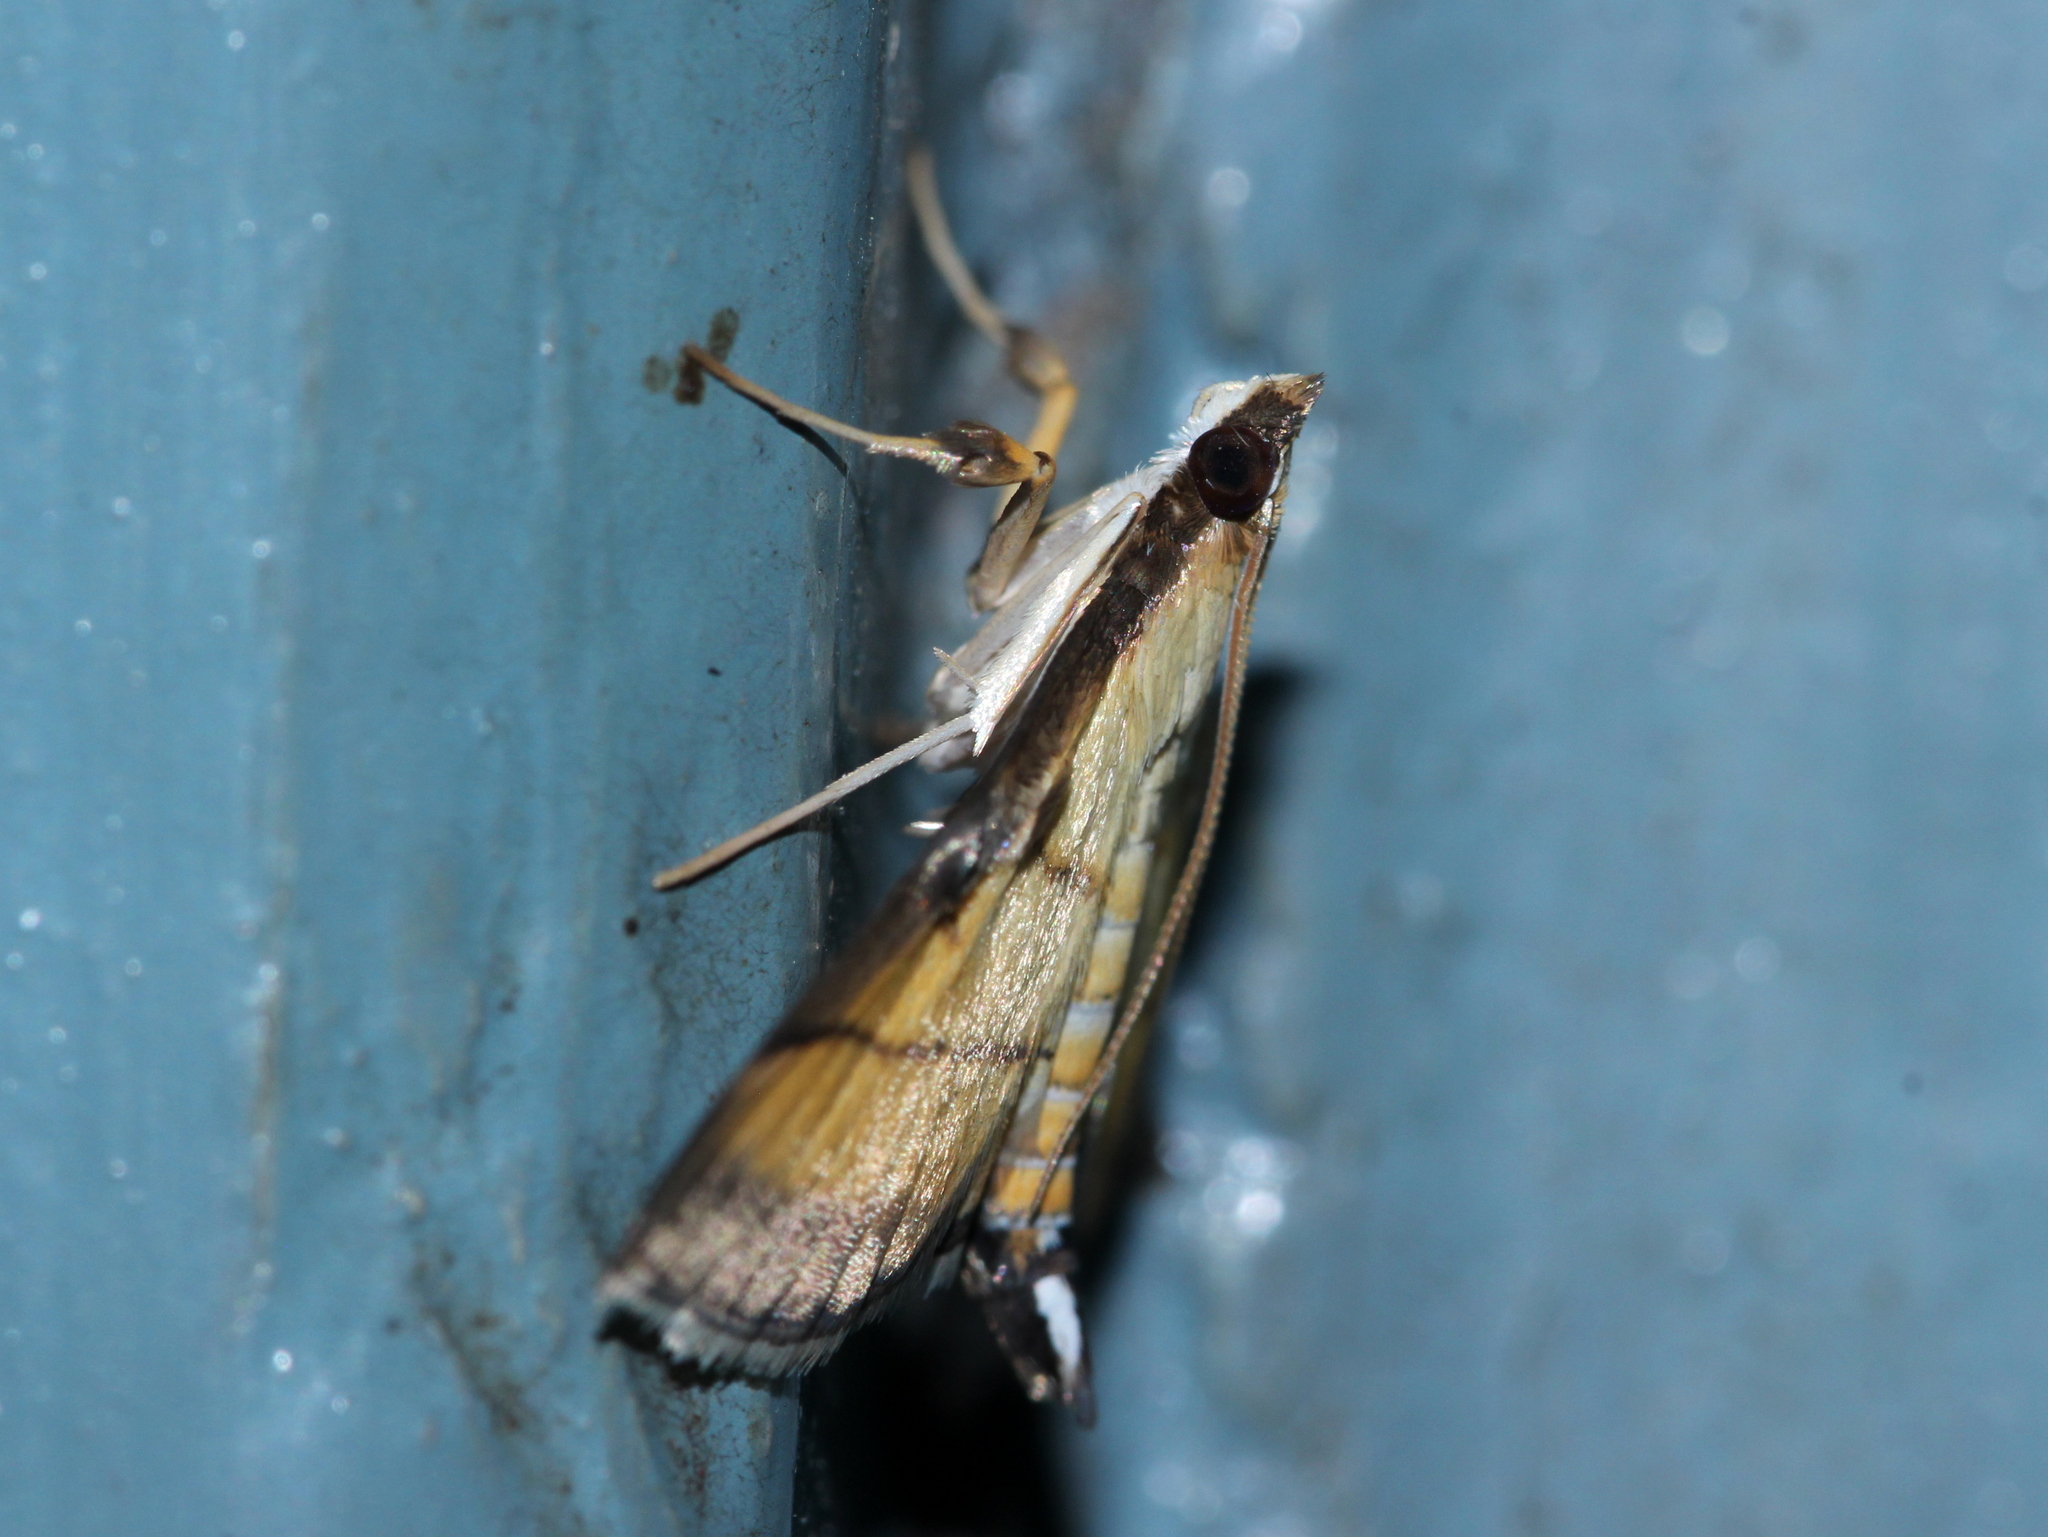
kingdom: Animalia
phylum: Arthropoda
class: Insecta
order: Lepidoptera
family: Crambidae
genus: Cnaphalocrocis
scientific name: Cnaphalocrocis medinalis
